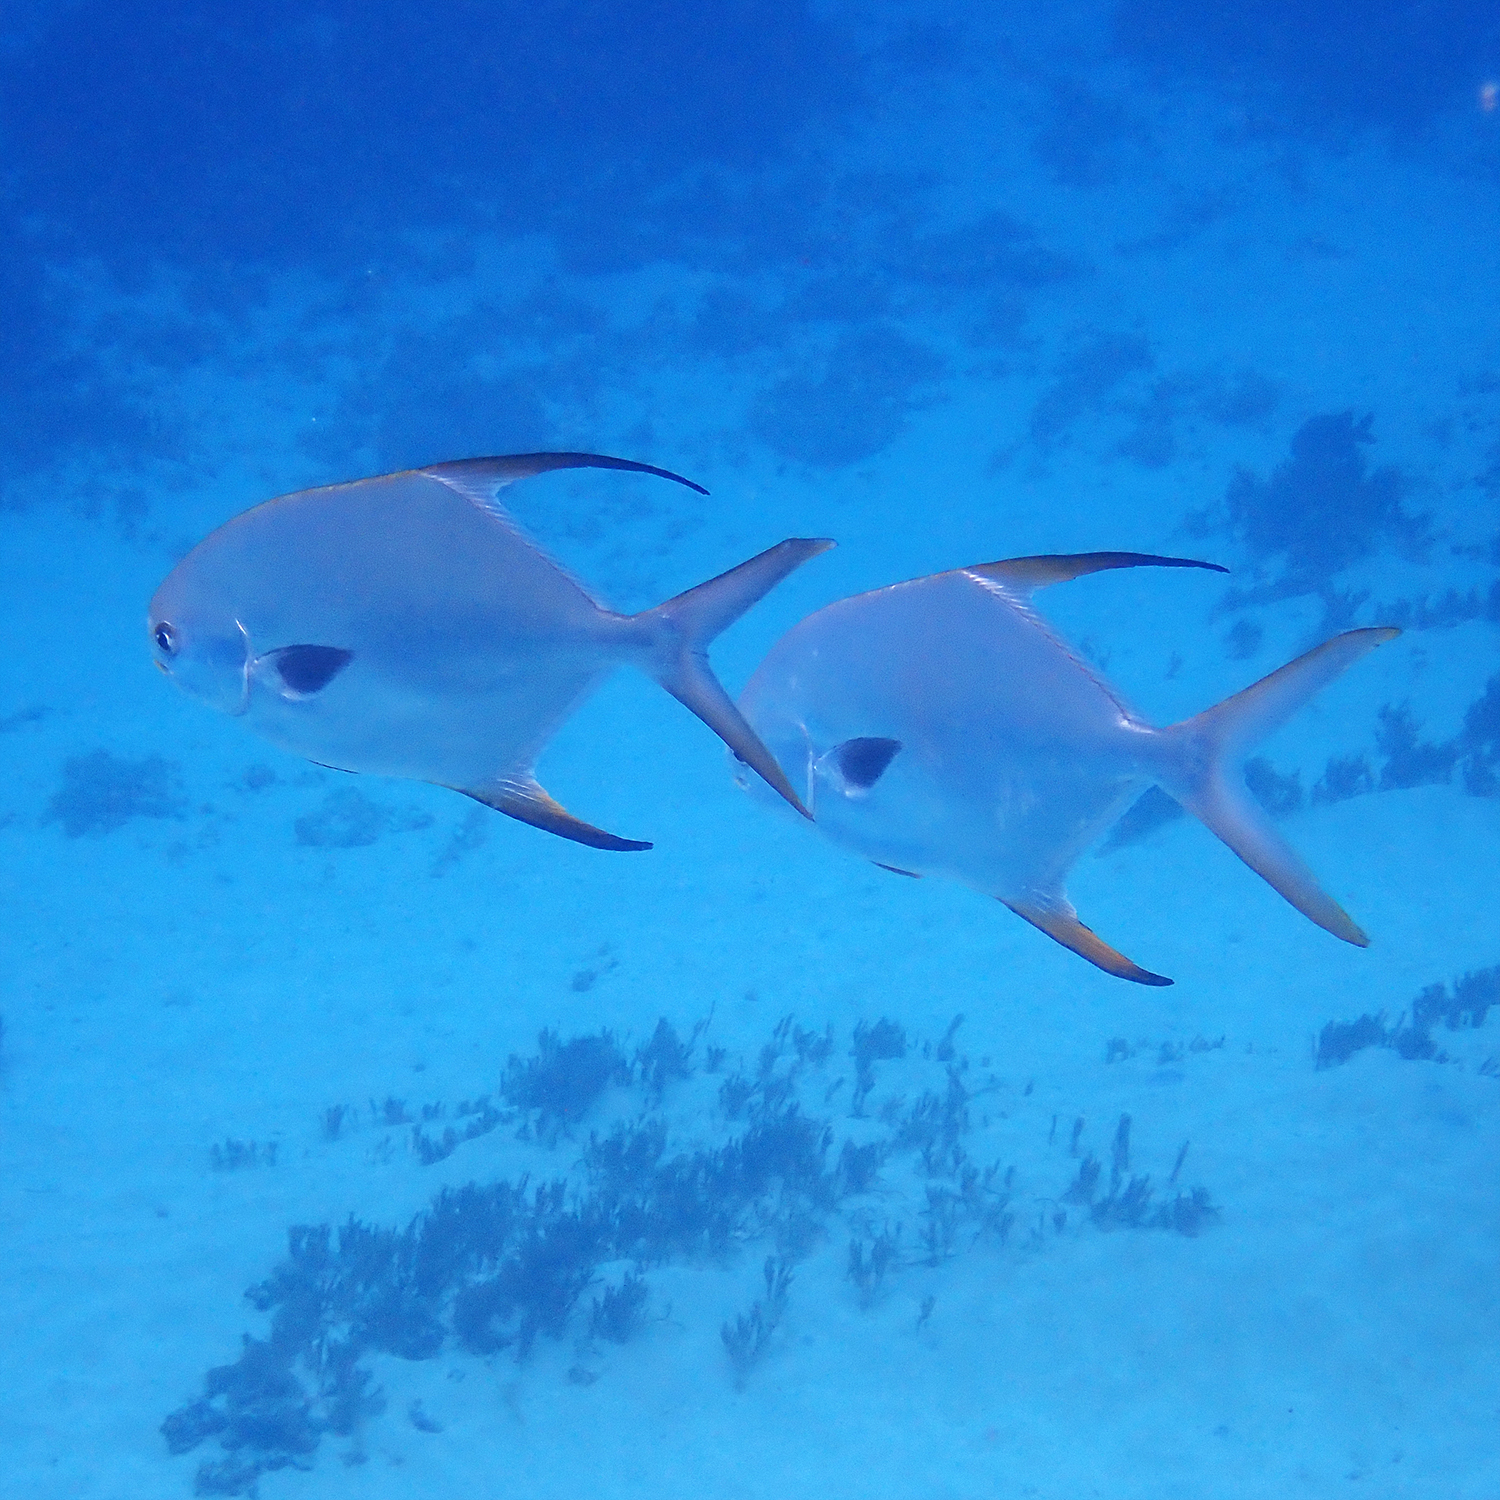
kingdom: Animalia
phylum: Chordata
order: Perciformes
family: Carangidae
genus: Trachinotus
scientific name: Trachinotus blochii
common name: Snubnose pompano
